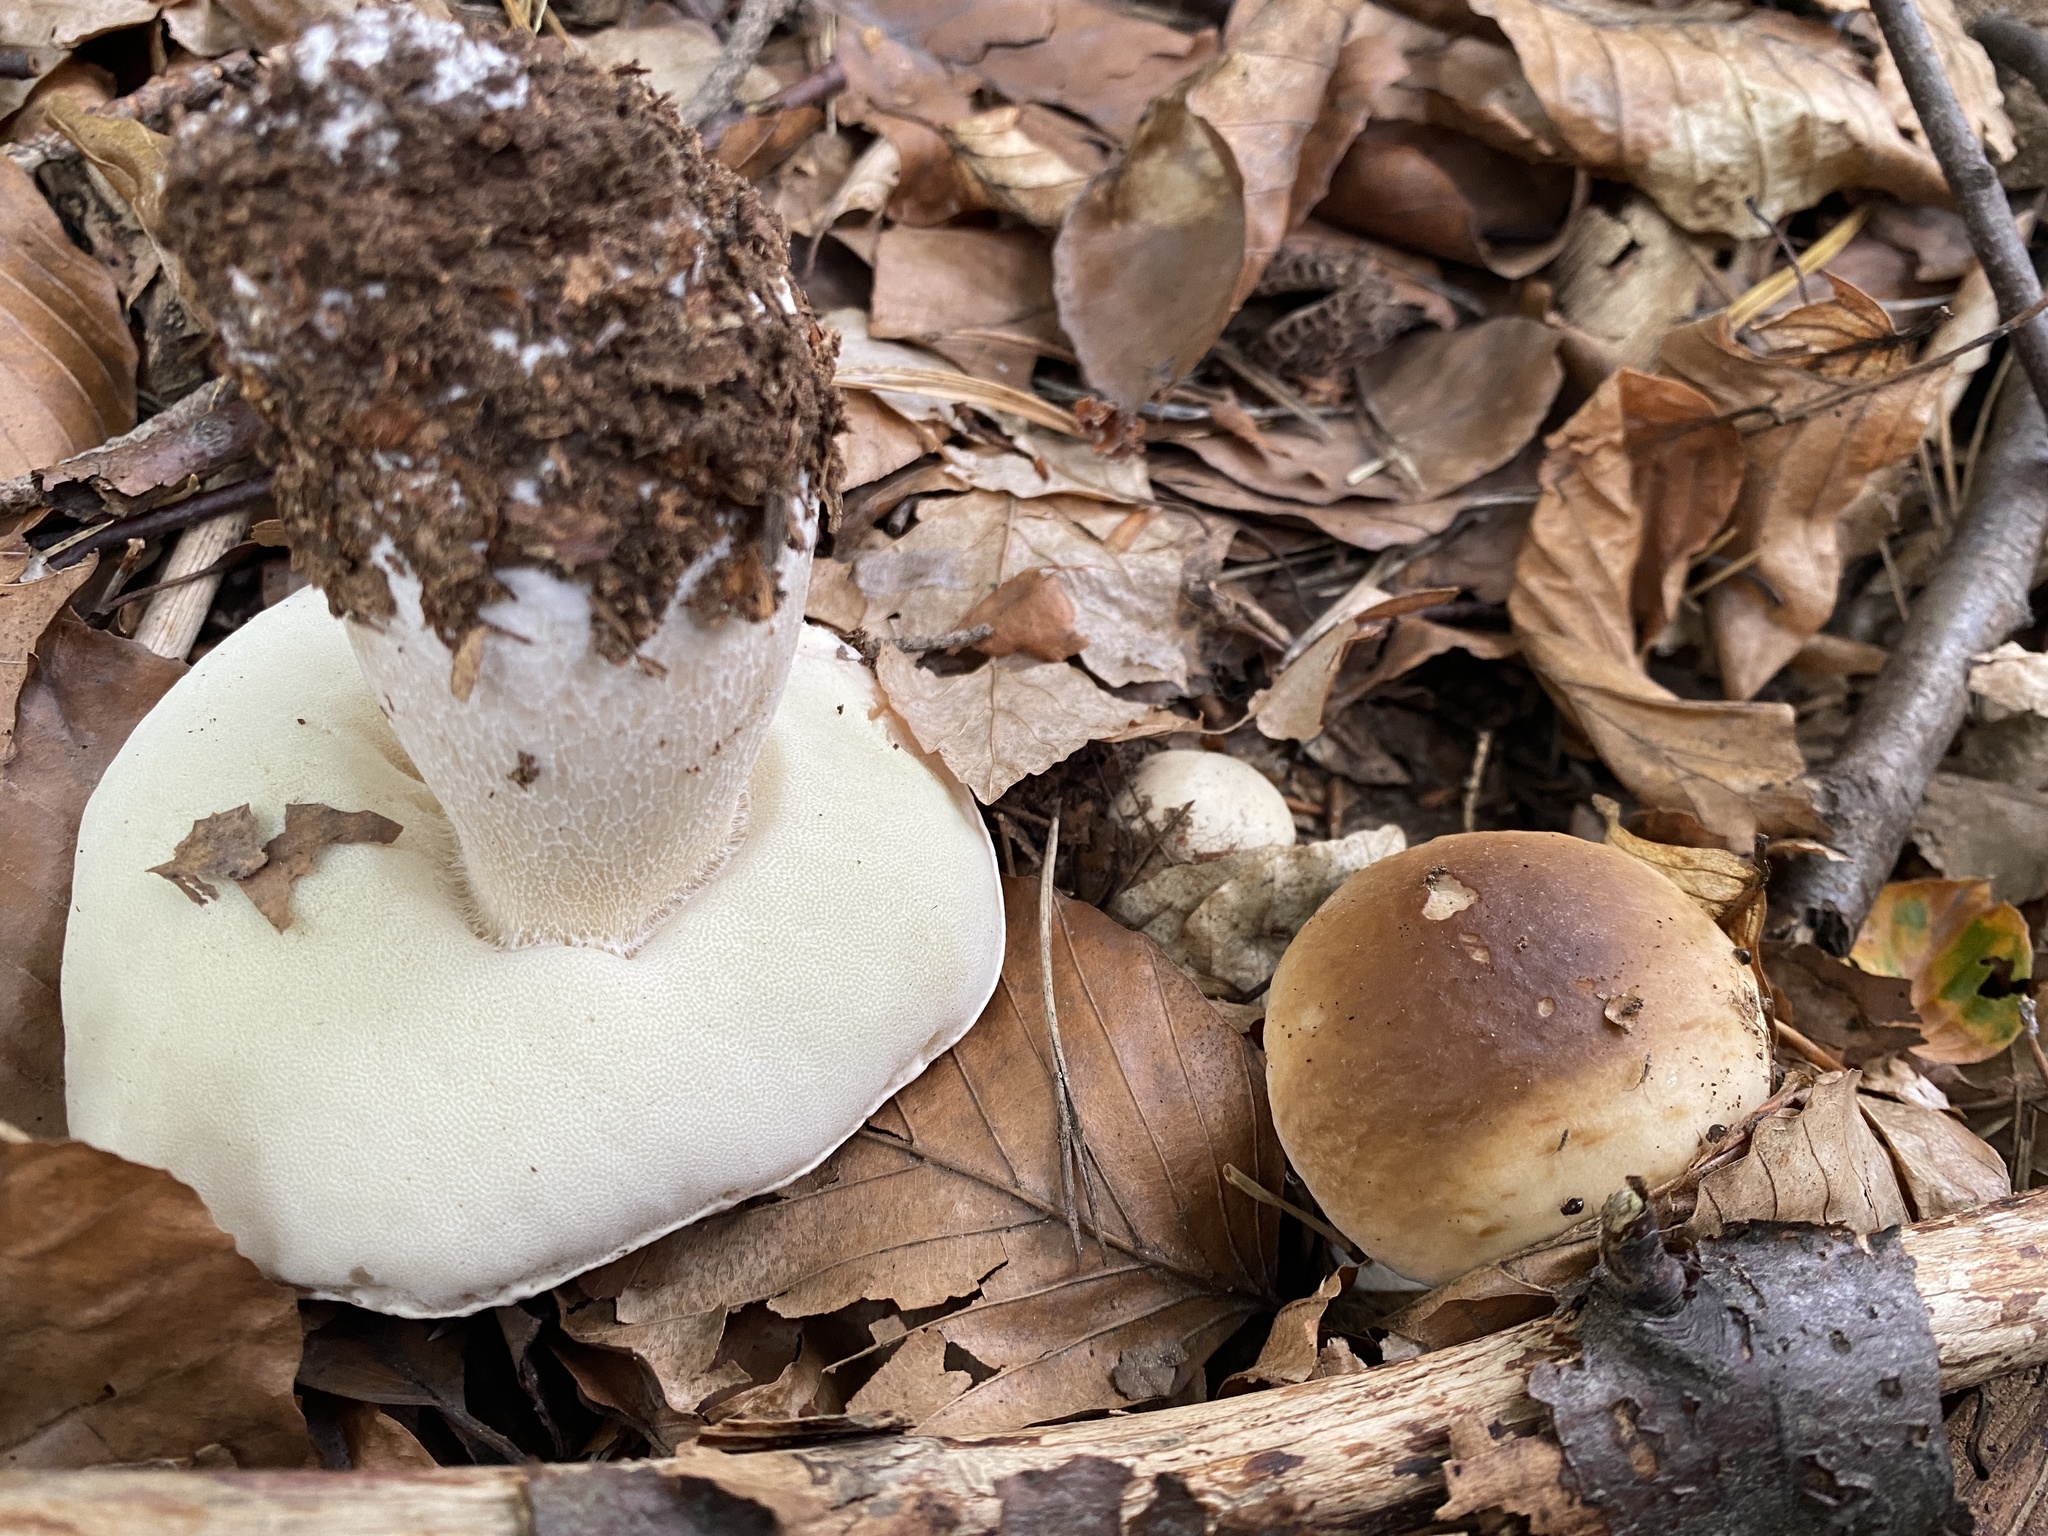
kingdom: Fungi
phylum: Basidiomycota
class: Agaricomycetes
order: Boletales
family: Boletaceae
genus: Boletus
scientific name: Boletus edulis
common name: Cep
